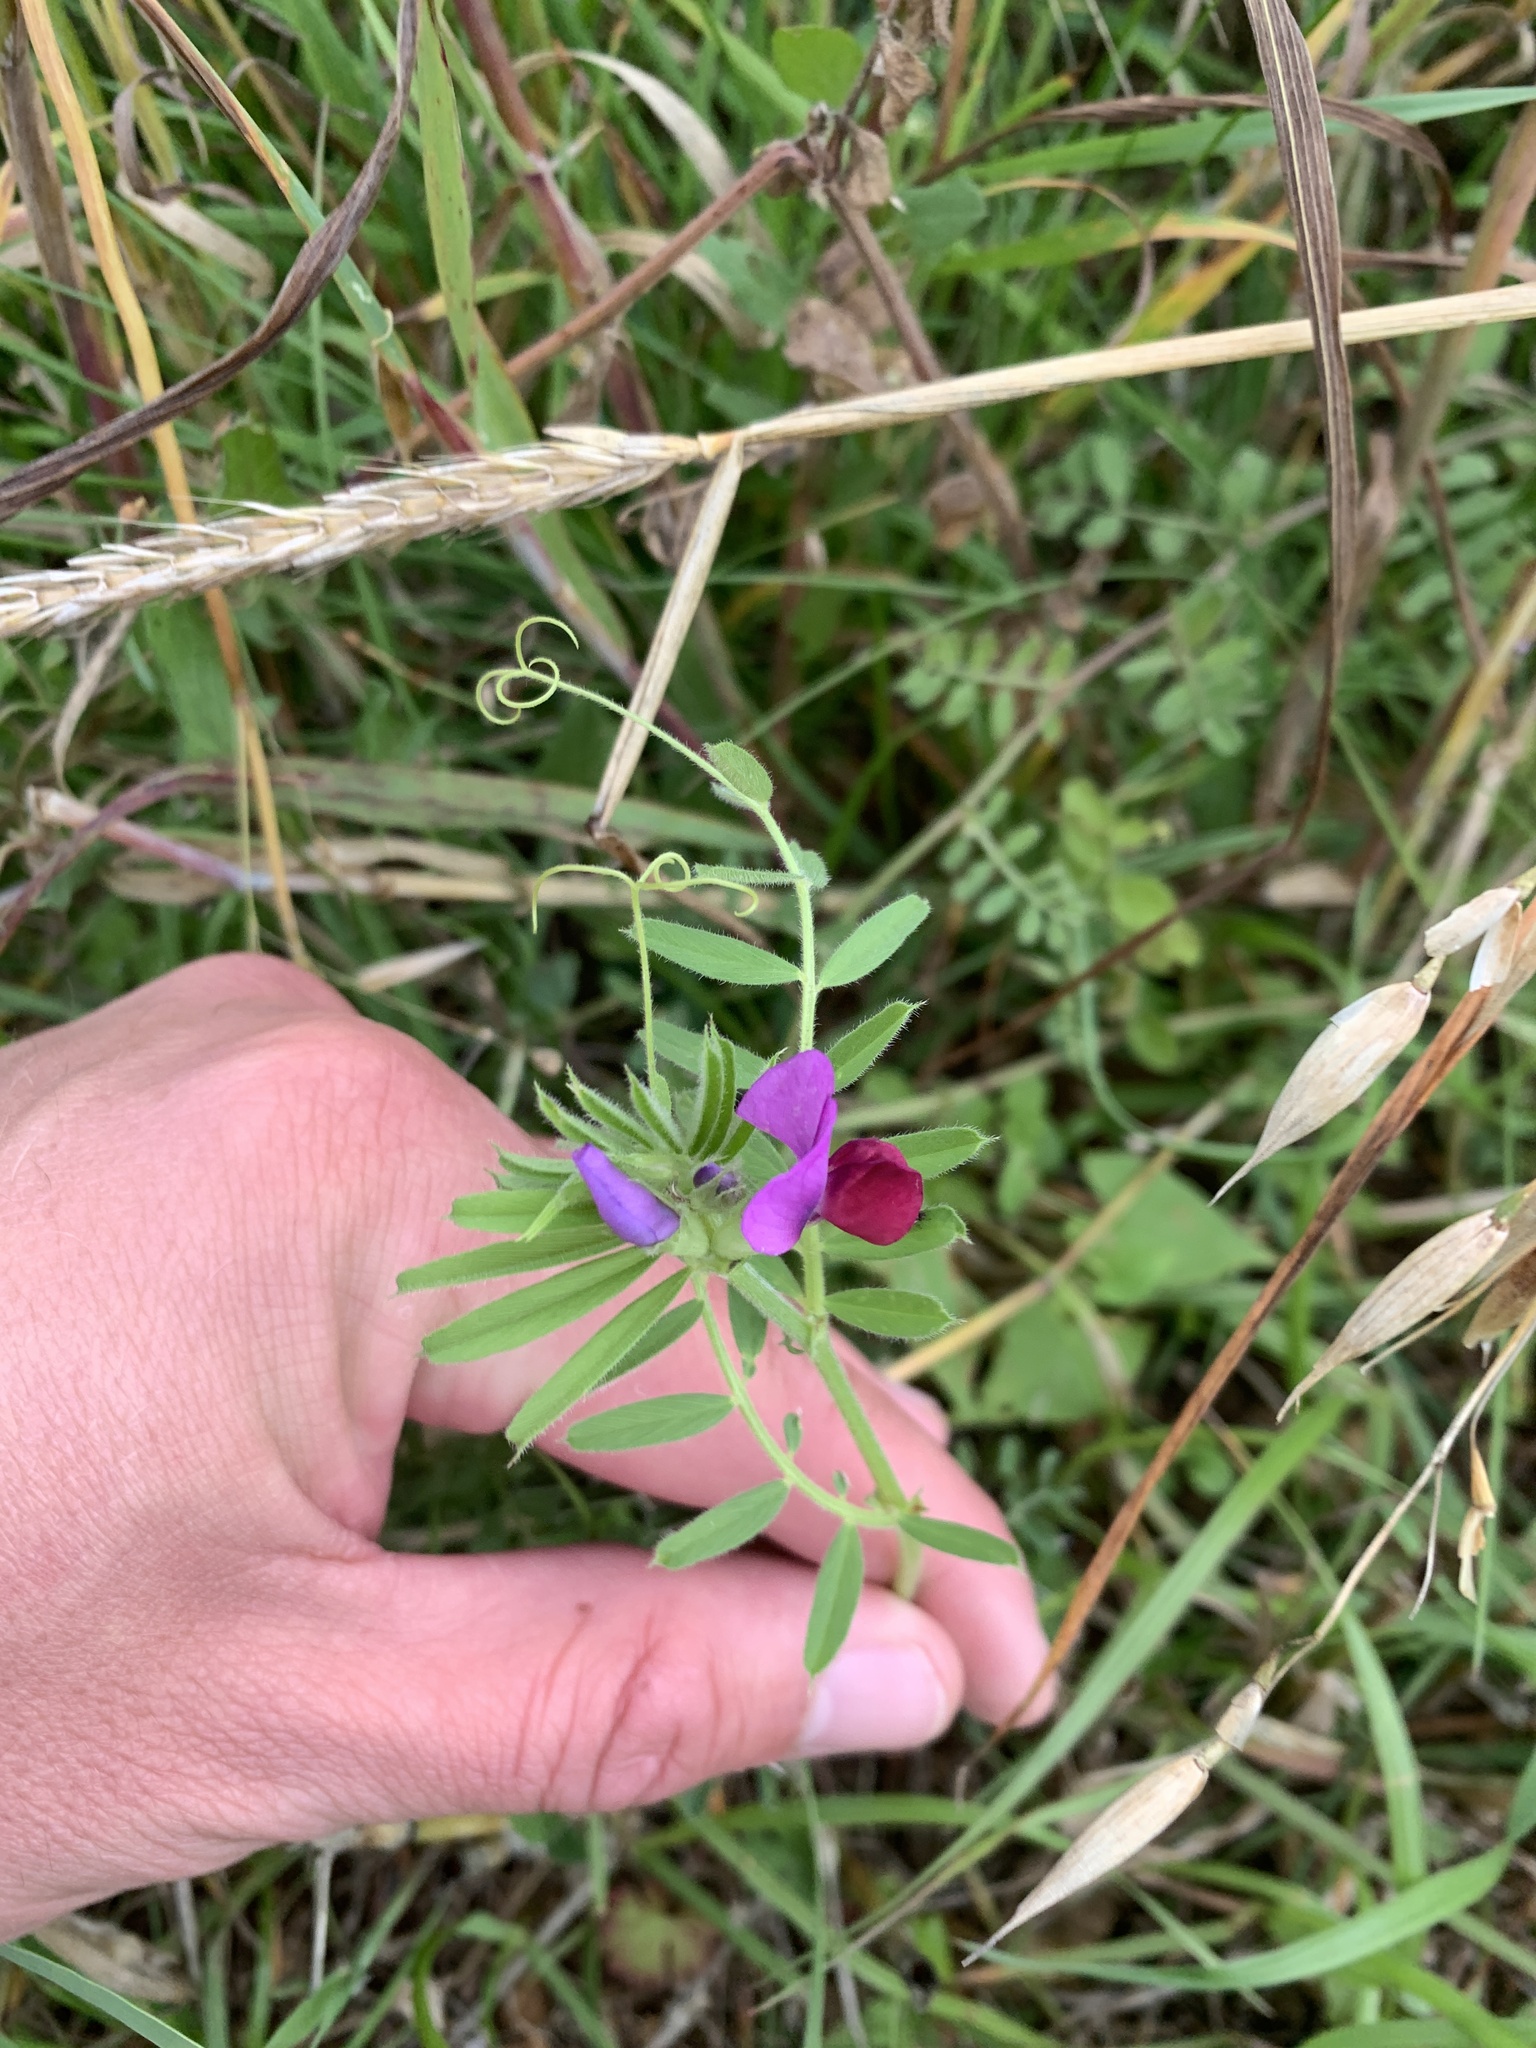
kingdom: Plantae
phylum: Tracheophyta
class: Magnoliopsida
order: Fabales
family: Fabaceae
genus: Vicia
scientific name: Vicia sativa
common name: Garden vetch
